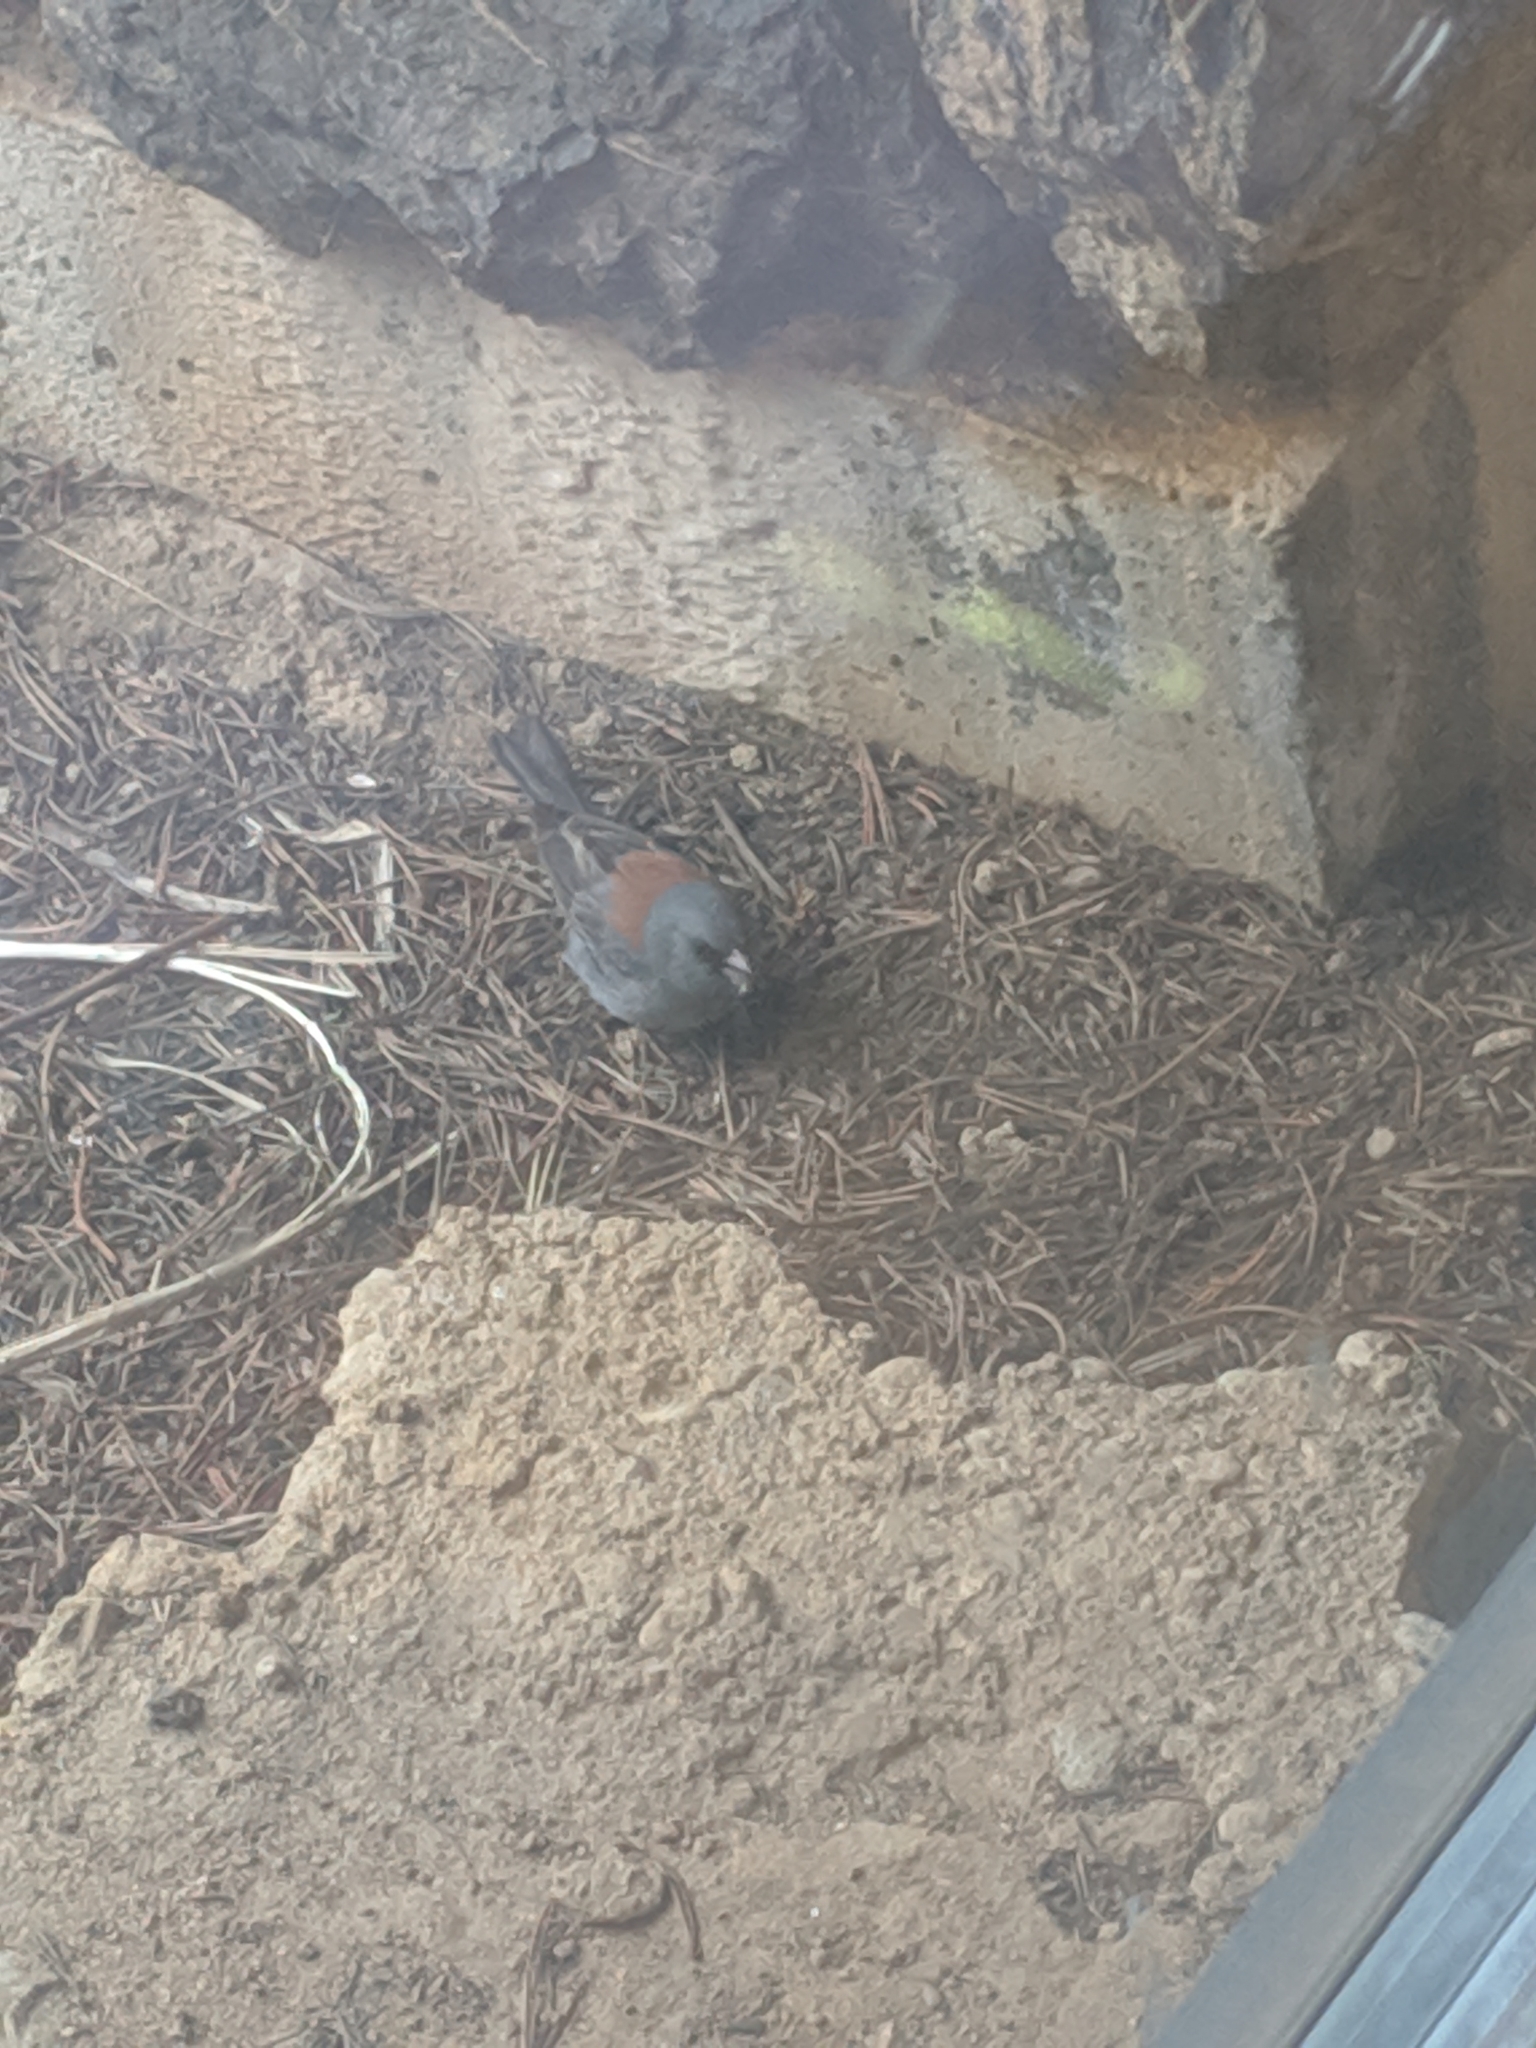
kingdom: Animalia
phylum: Chordata
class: Aves
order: Passeriformes
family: Passerellidae
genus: Junco
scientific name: Junco hyemalis
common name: Dark-eyed junco
